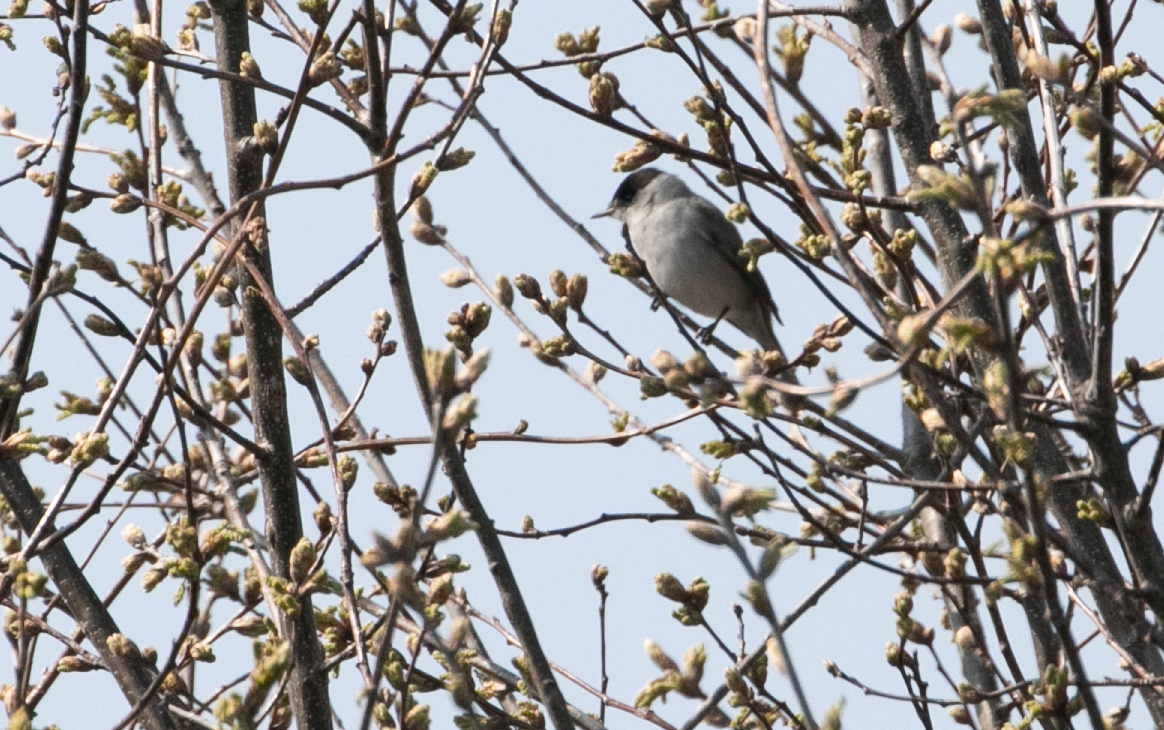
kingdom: Animalia
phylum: Chordata
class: Aves
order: Passeriformes
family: Sylviidae
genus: Sylvia
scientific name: Sylvia atricapilla
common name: Eurasian blackcap
